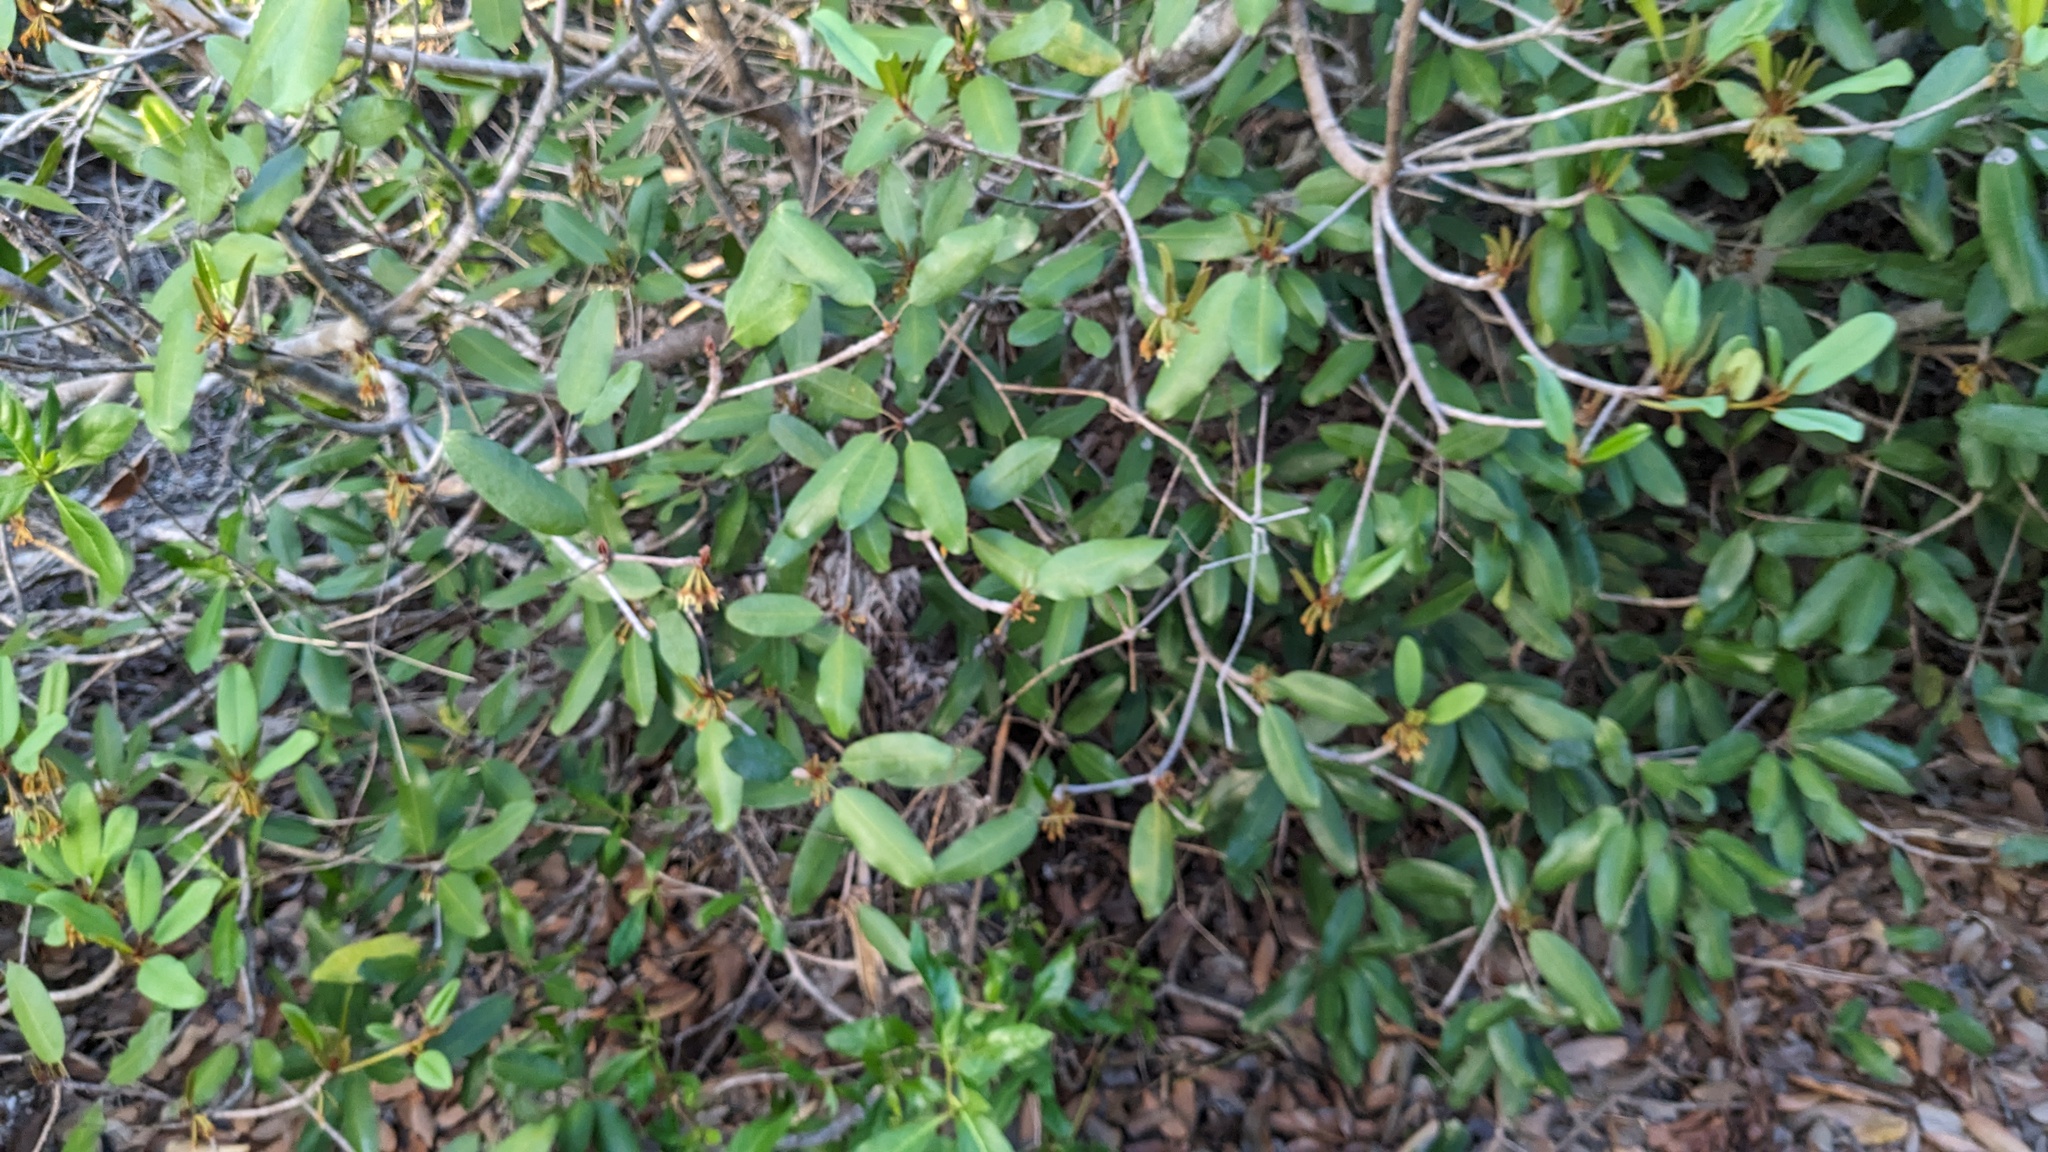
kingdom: Plantae
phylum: Tracheophyta
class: Magnoliopsida
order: Ericales
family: Sapotaceae
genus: Manilkara
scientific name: Manilkara jaimiqui
